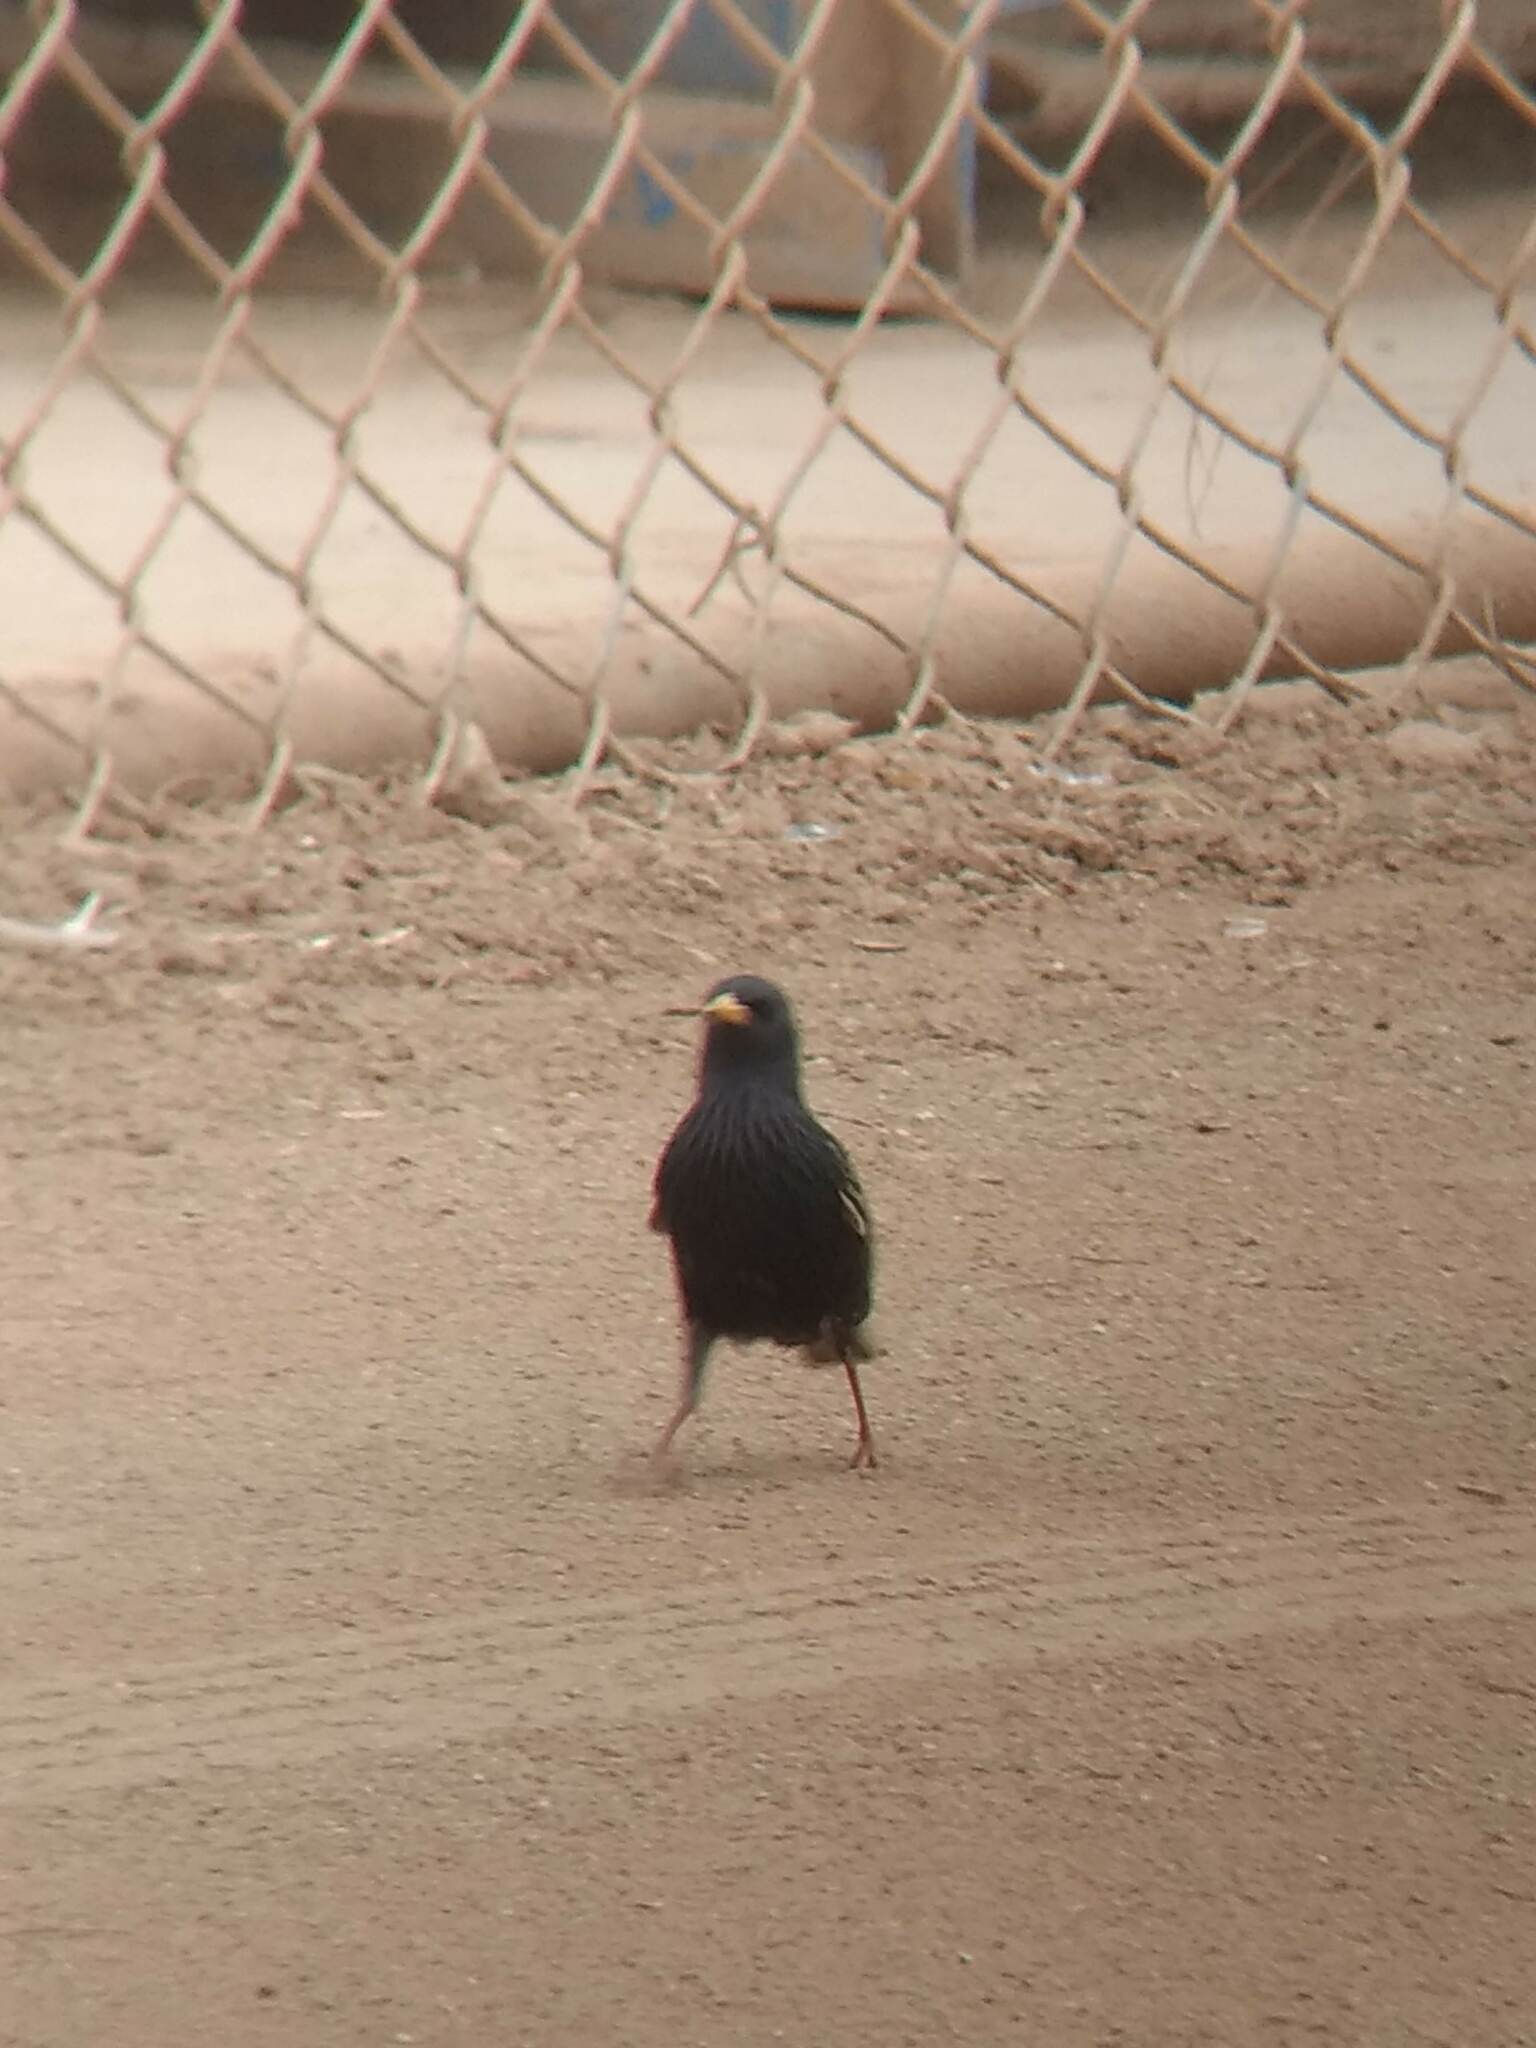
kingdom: Animalia
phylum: Chordata
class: Aves
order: Passeriformes
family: Sturnidae
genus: Sturnus
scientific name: Sturnus vulgaris
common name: Common starling
